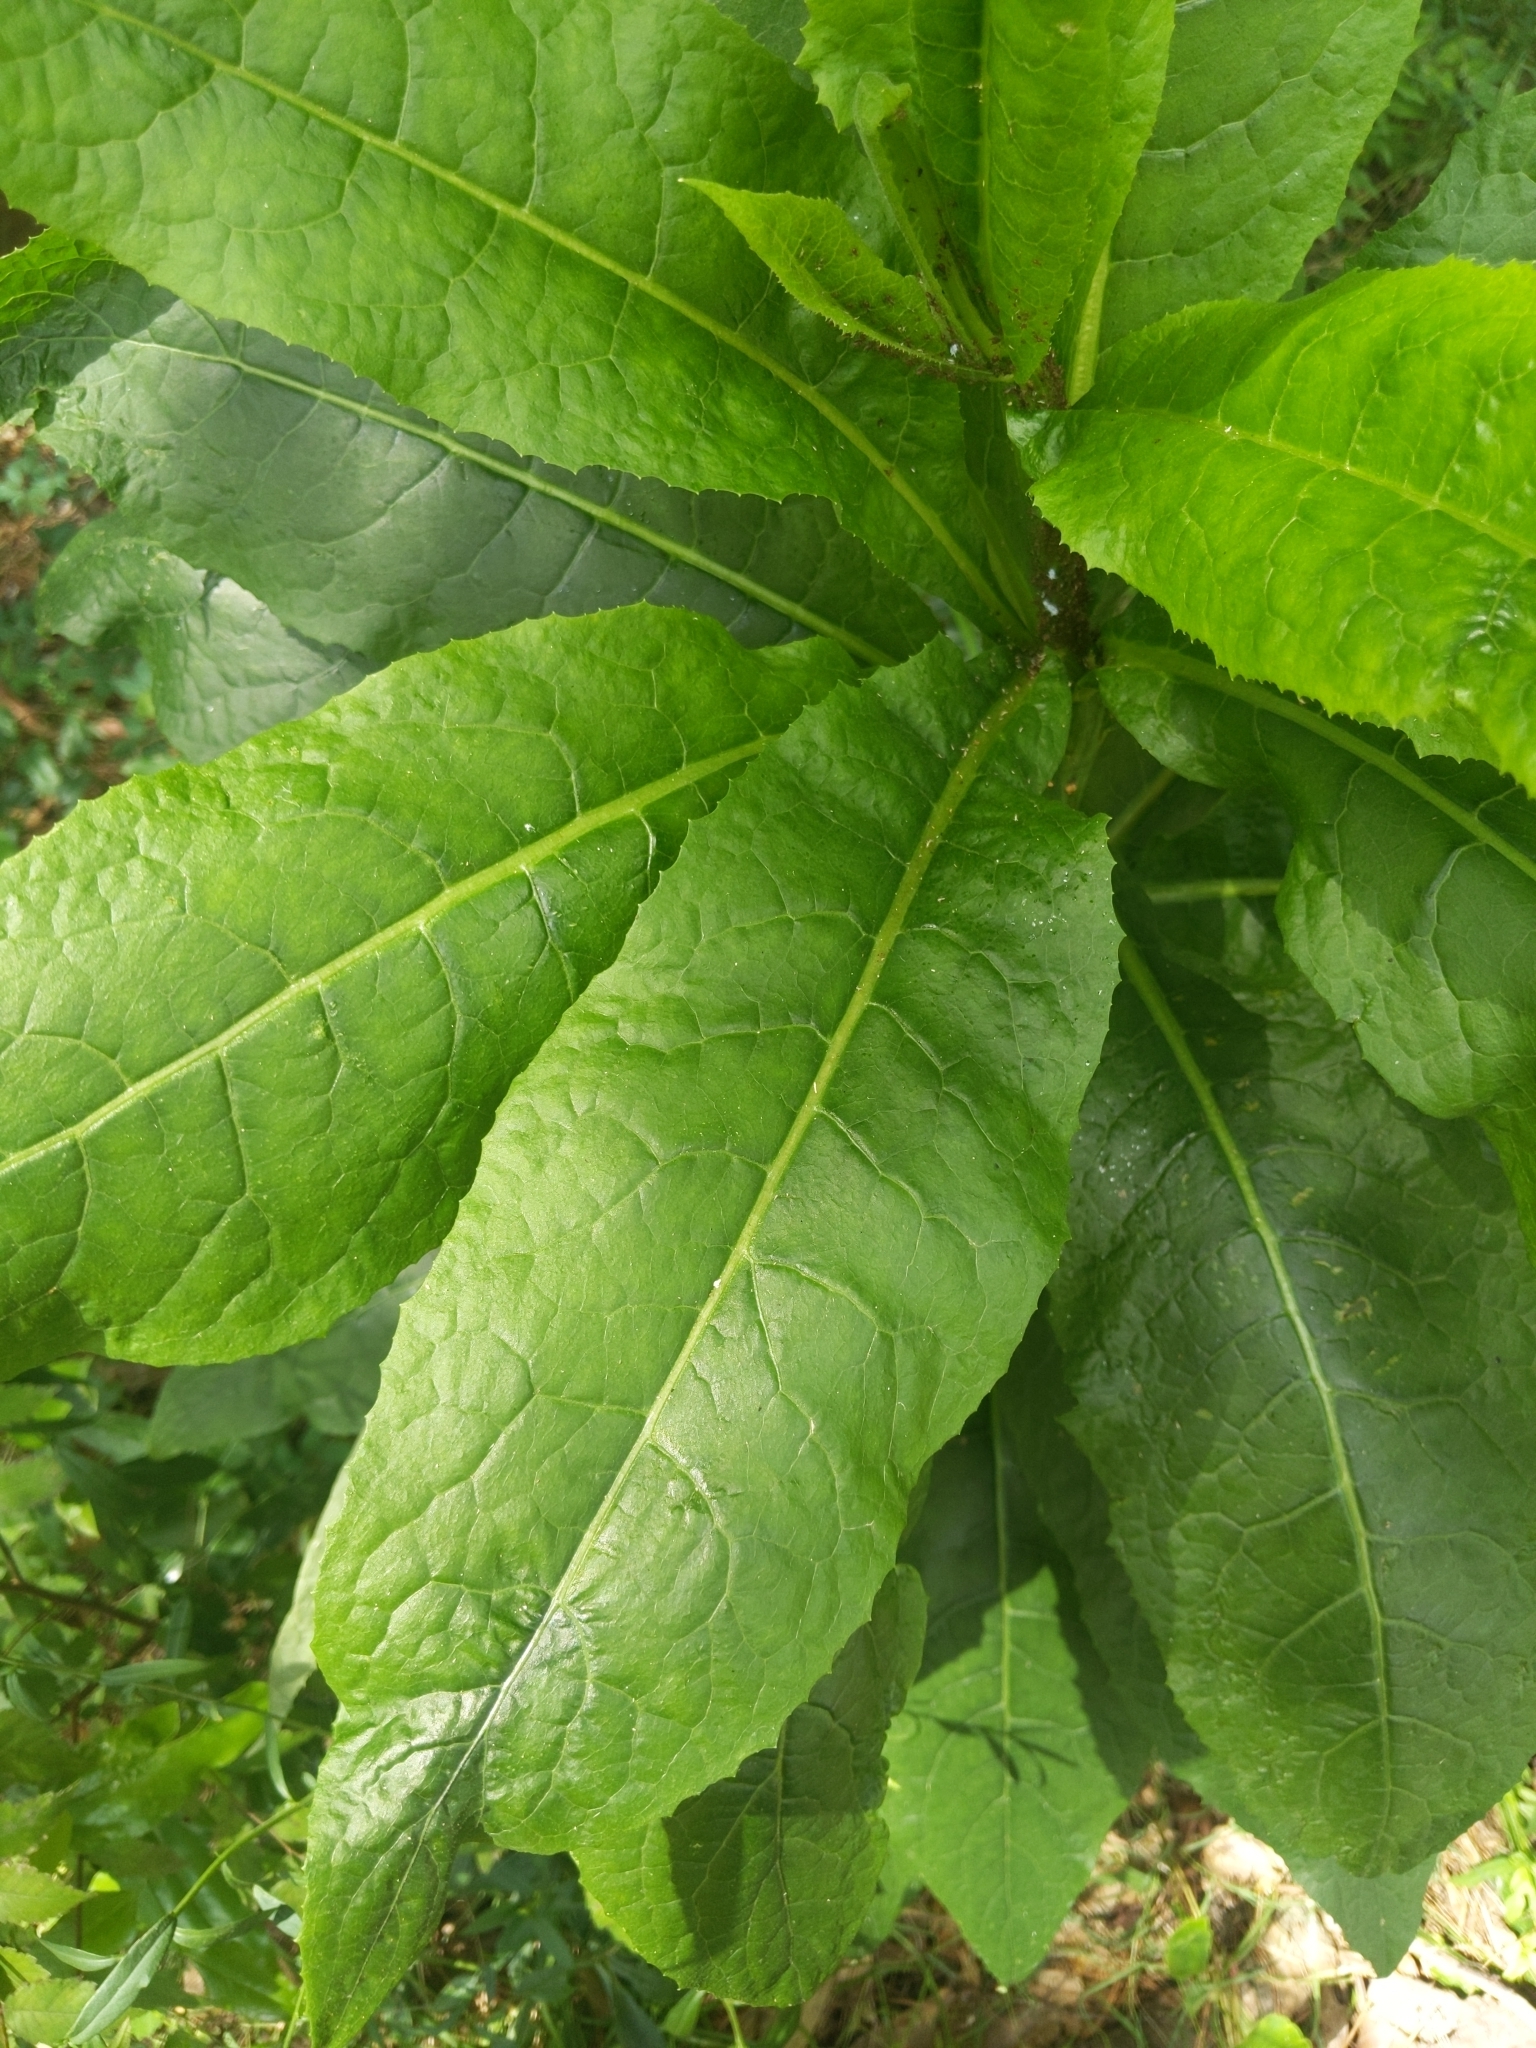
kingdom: Plantae
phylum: Tracheophyta
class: Magnoliopsida
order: Caryophyllales
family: Phytolaccaceae
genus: Phytolacca
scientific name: Phytolacca americana
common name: American pokeweed
